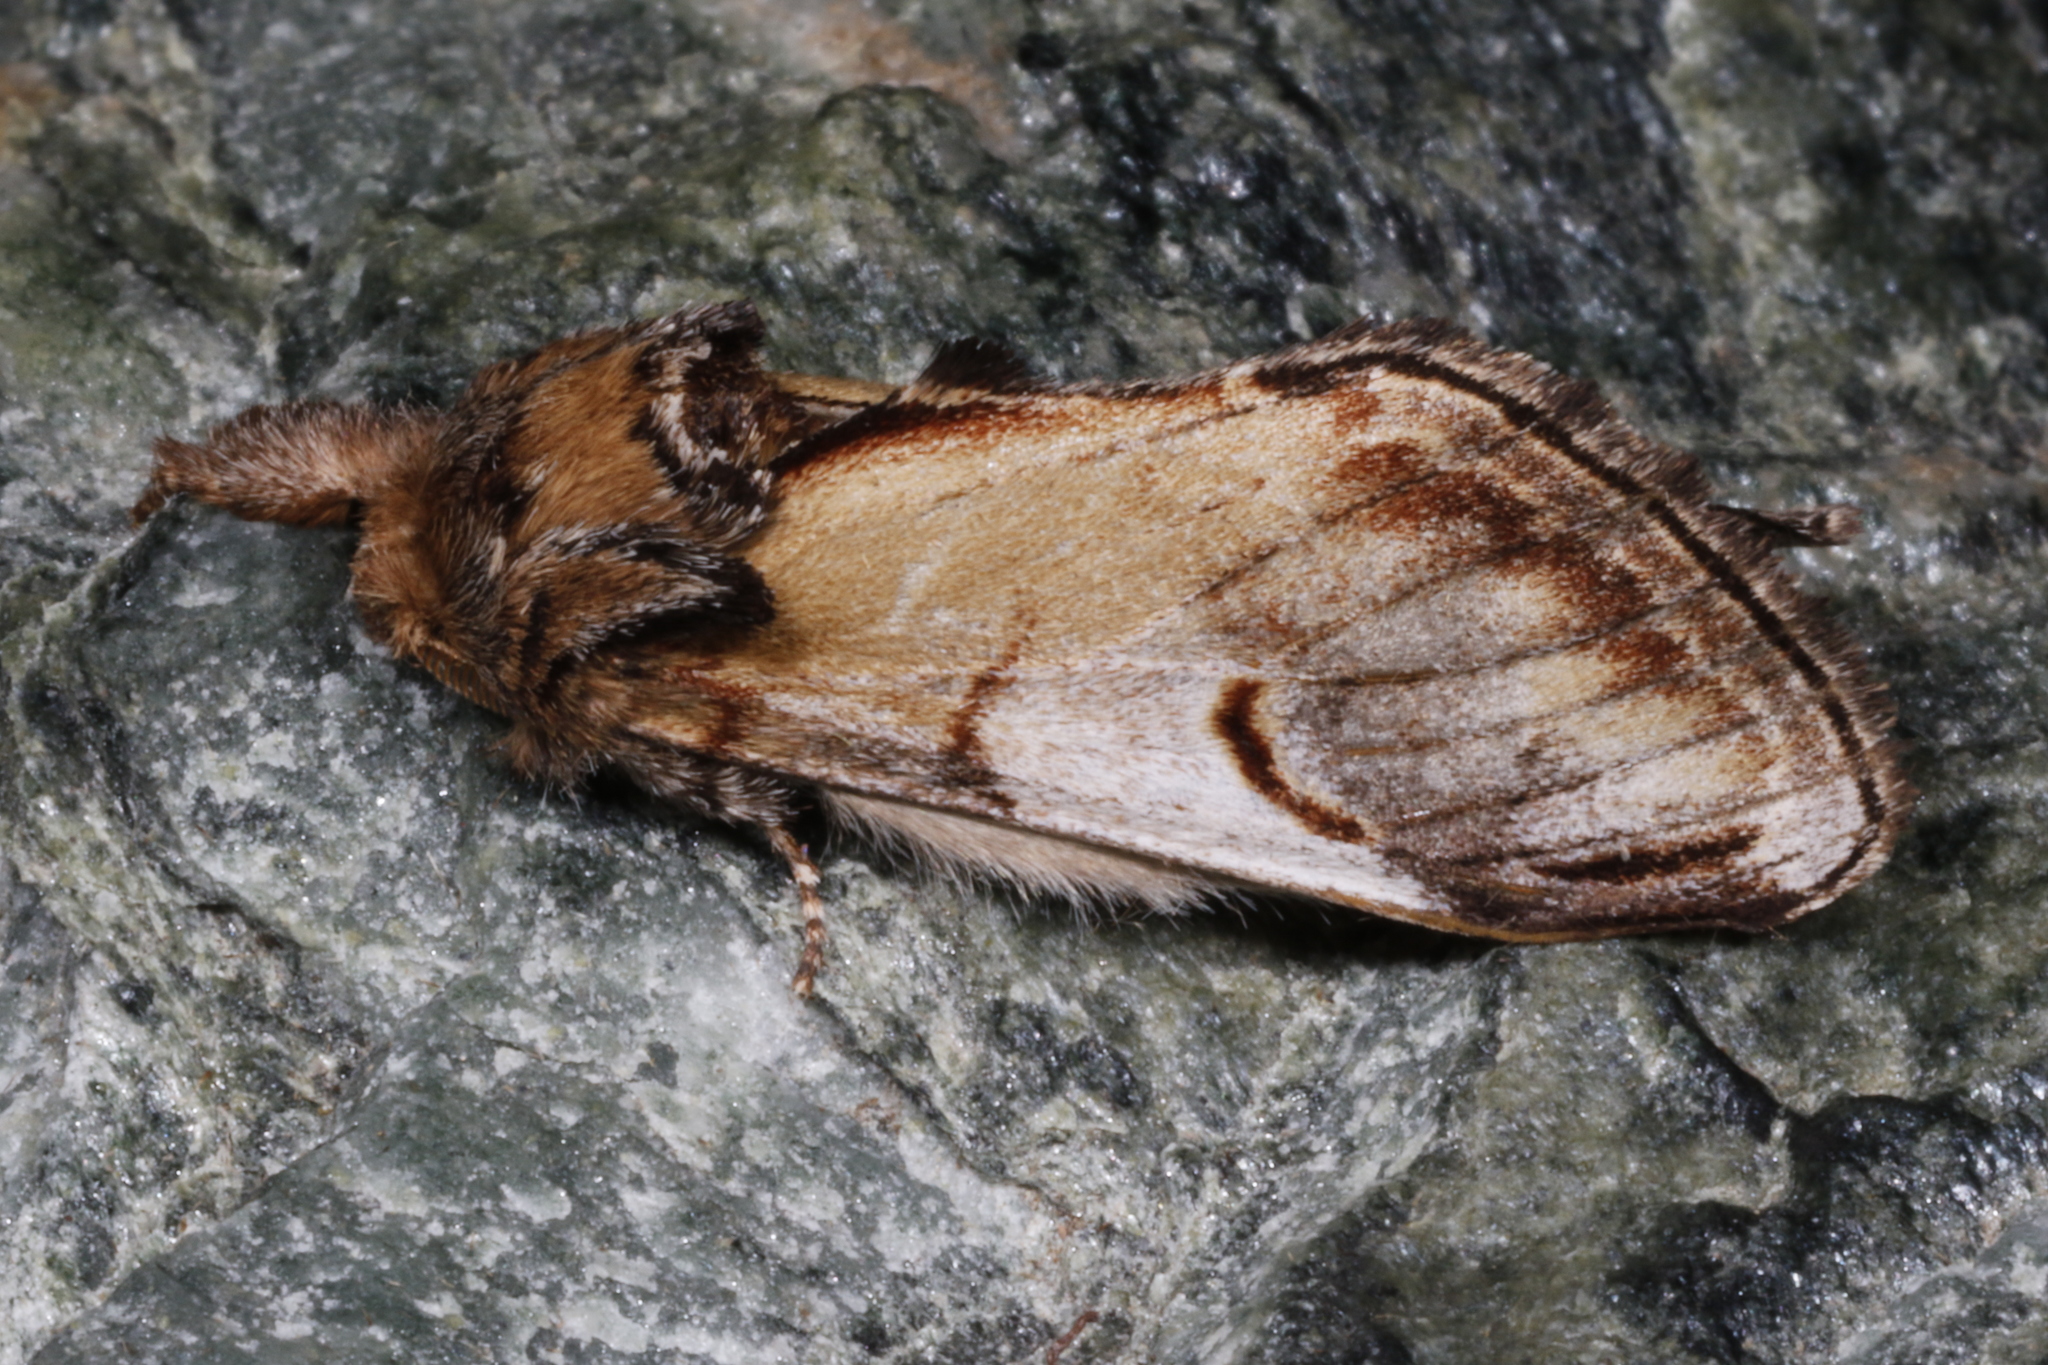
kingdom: Animalia
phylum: Arthropoda
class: Insecta
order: Lepidoptera
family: Notodontidae
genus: Notodonta
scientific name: Notodonta ziczac
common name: Pebble prominent
